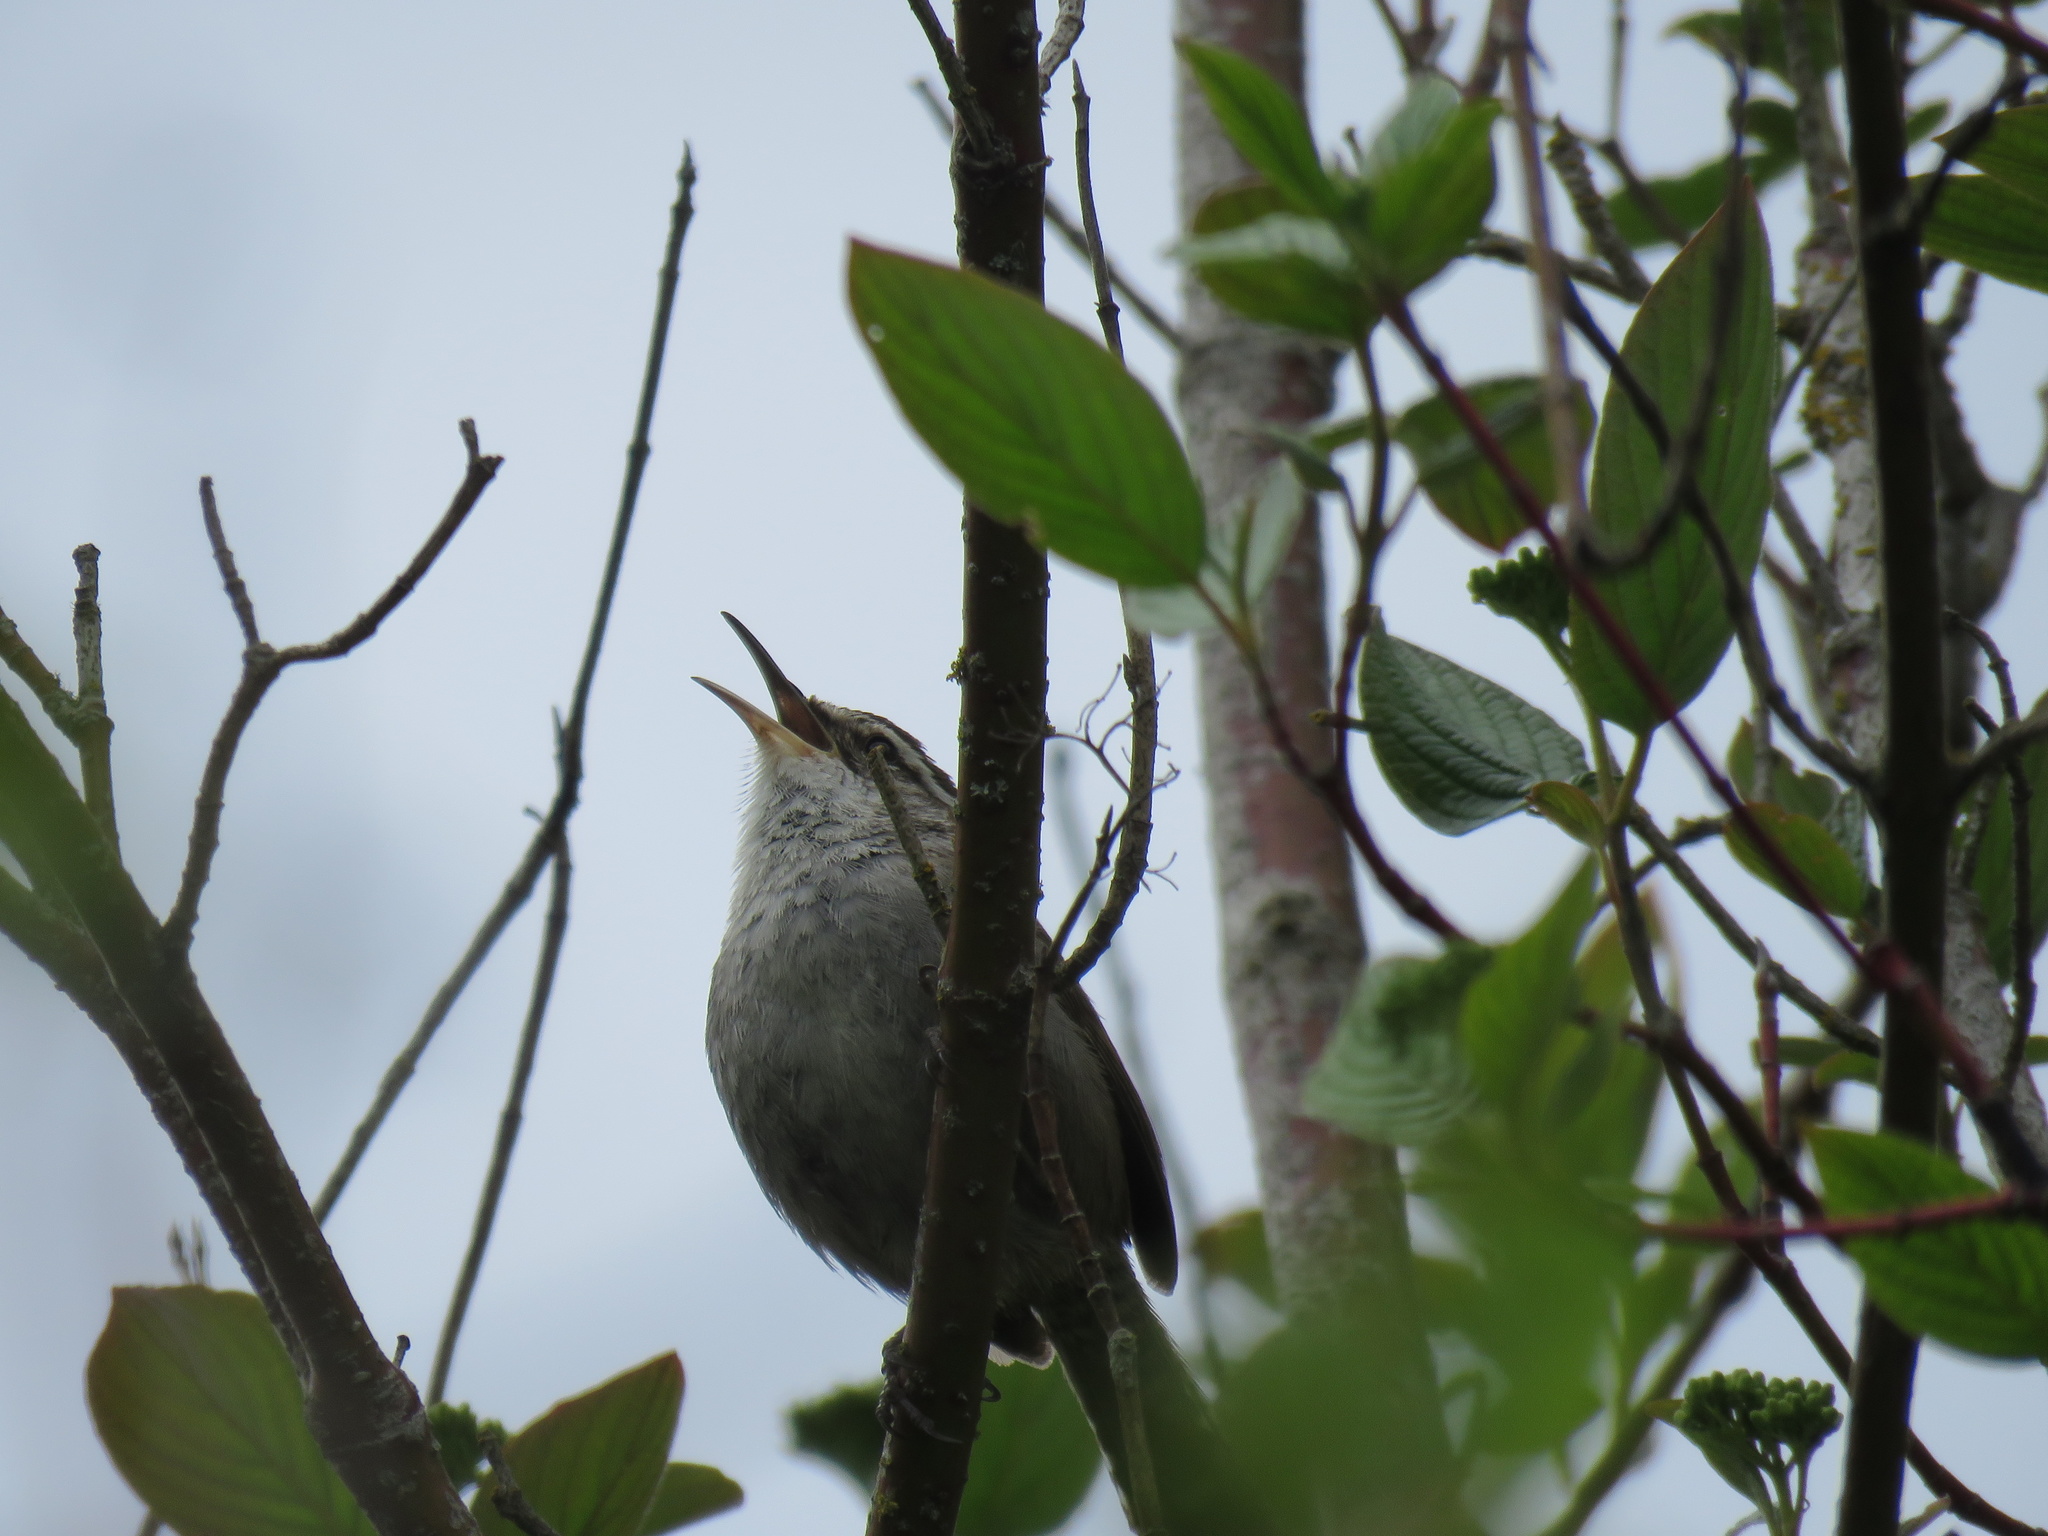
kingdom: Animalia
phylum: Chordata
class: Aves
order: Passeriformes
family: Troglodytidae
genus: Thryomanes
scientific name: Thryomanes bewickii
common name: Bewick's wren
